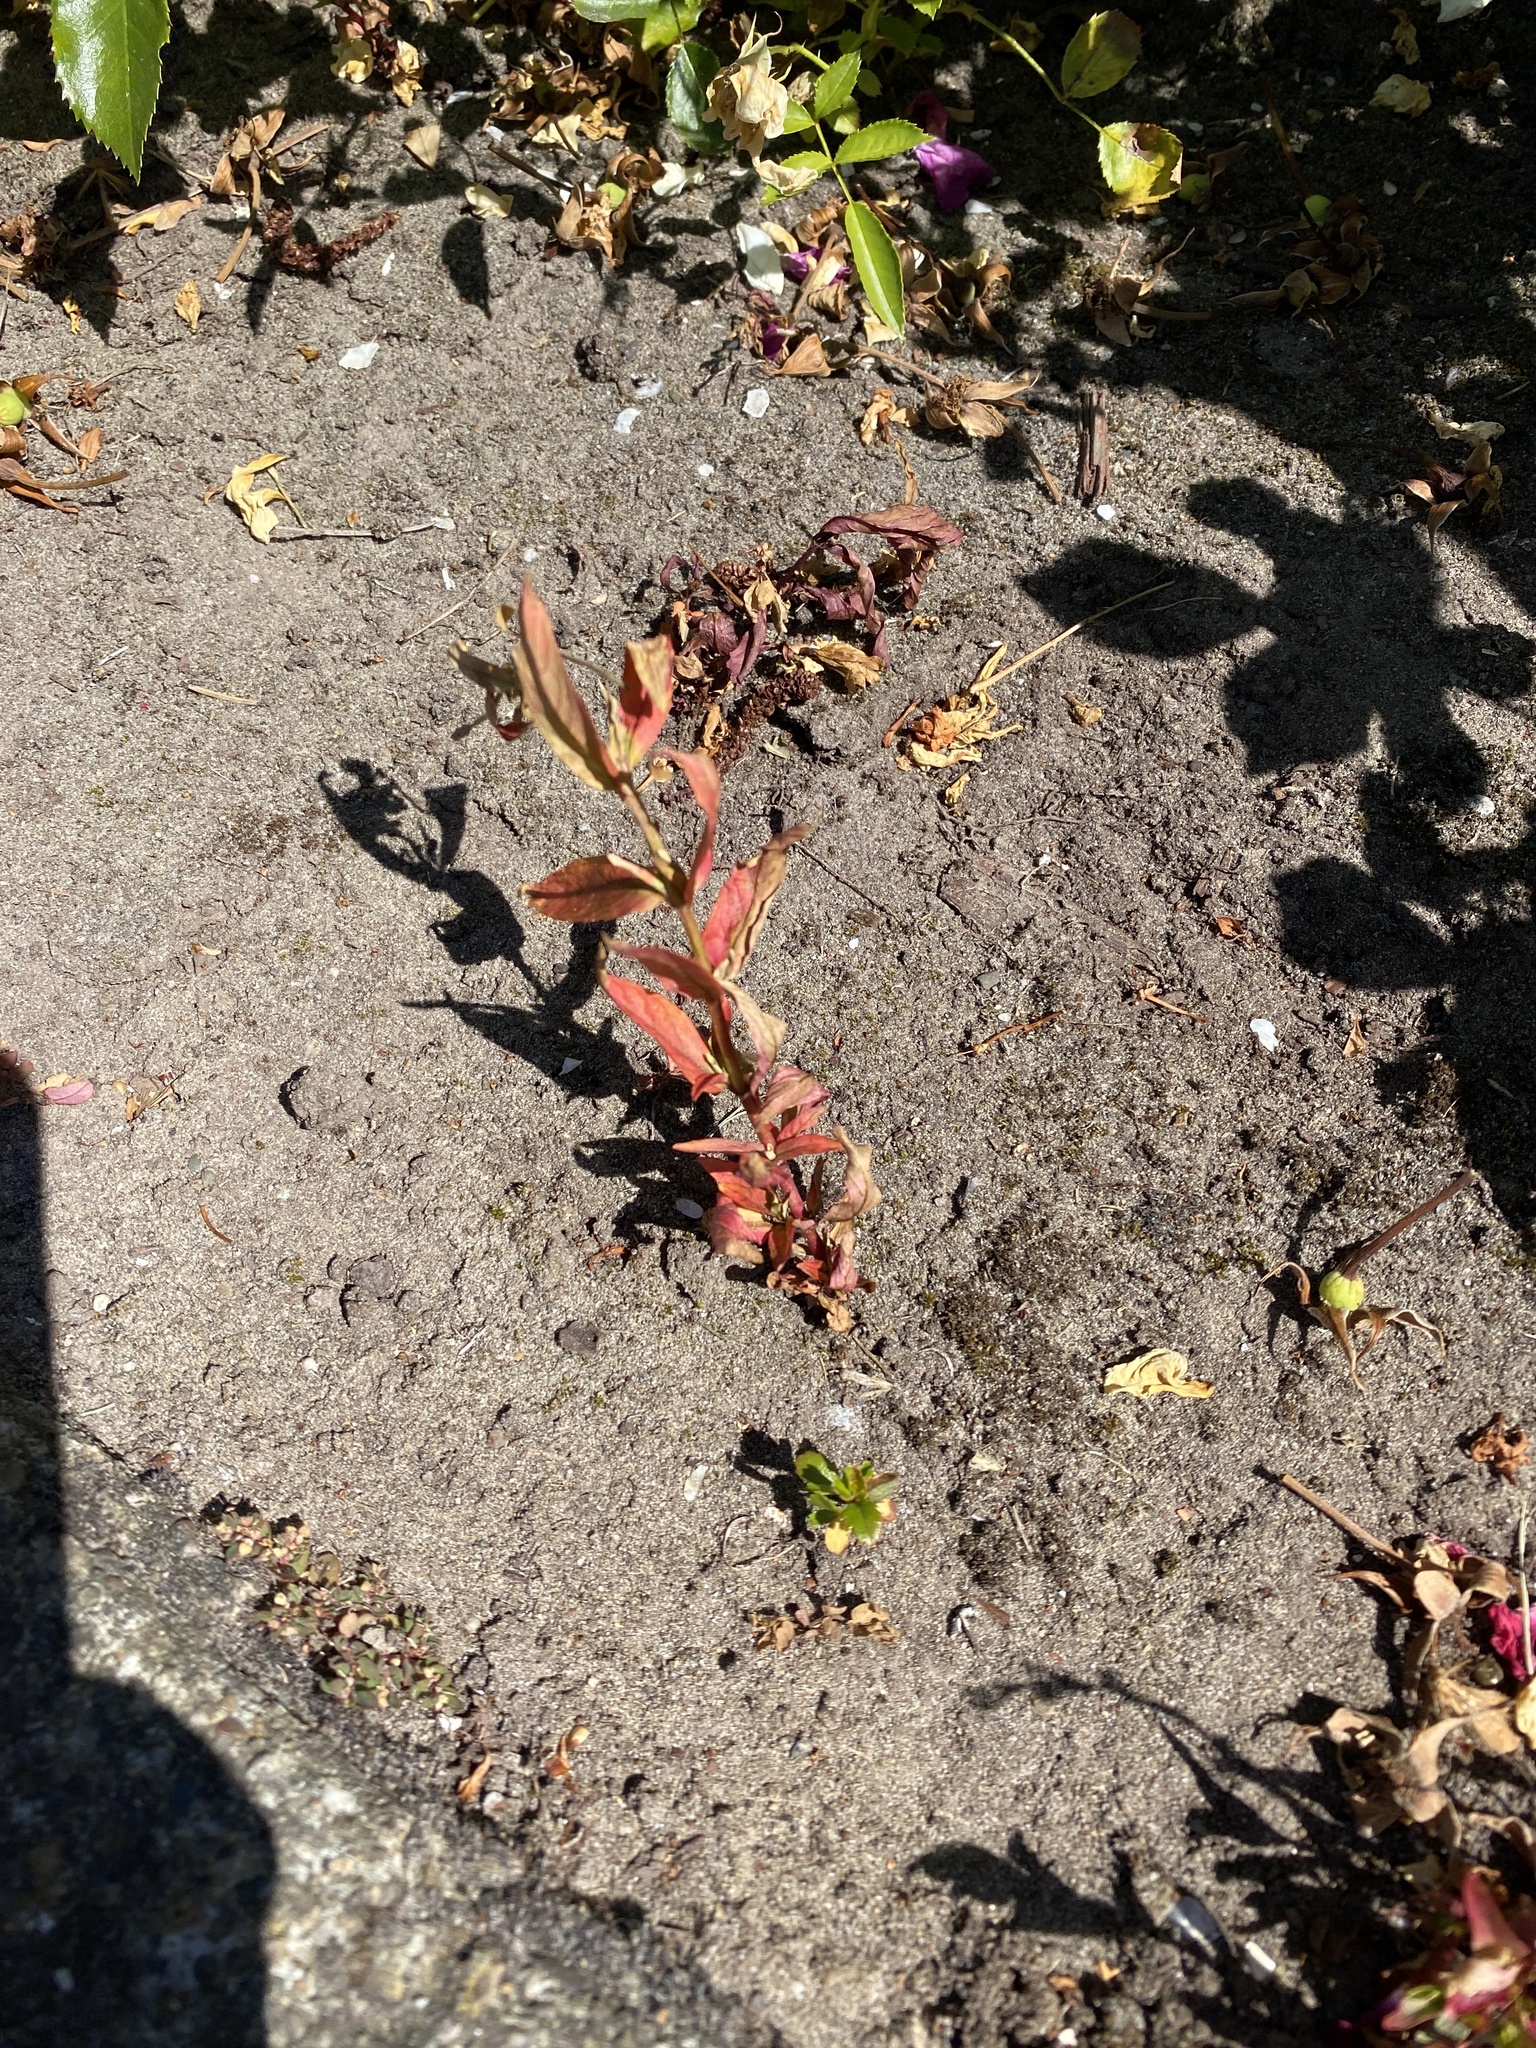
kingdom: Plantae
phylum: Tracheophyta
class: Magnoliopsida
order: Myrtales
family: Onagraceae
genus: Epilobium
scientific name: Epilobium ciliatum
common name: American willowherb
